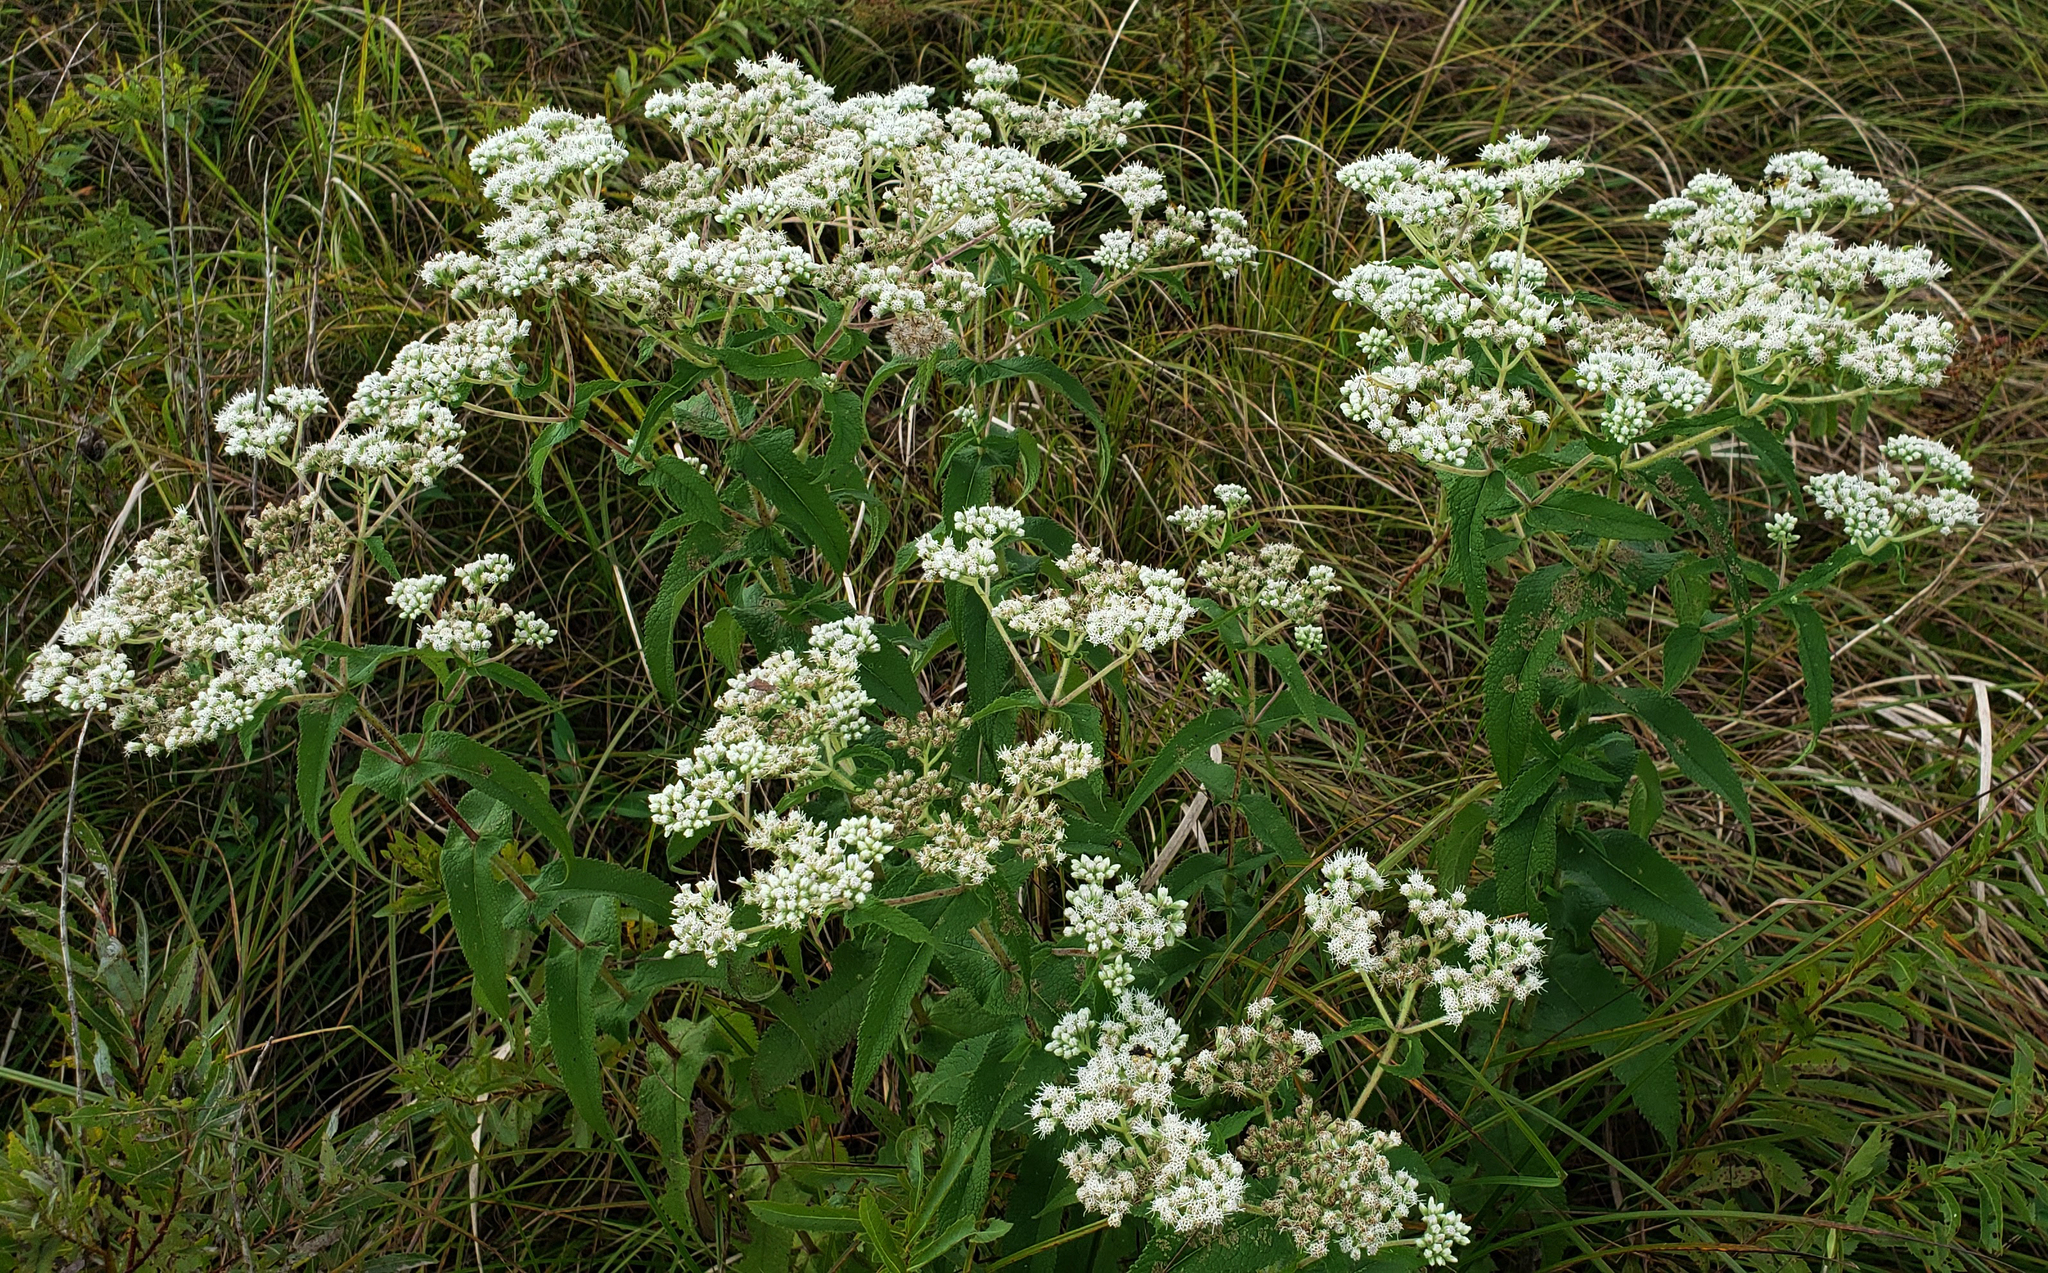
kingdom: Plantae
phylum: Tracheophyta
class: Magnoliopsida
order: Asterales
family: Asteraceae
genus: Eupatorium
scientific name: Eupatorium perfoliatum
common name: Boneset
